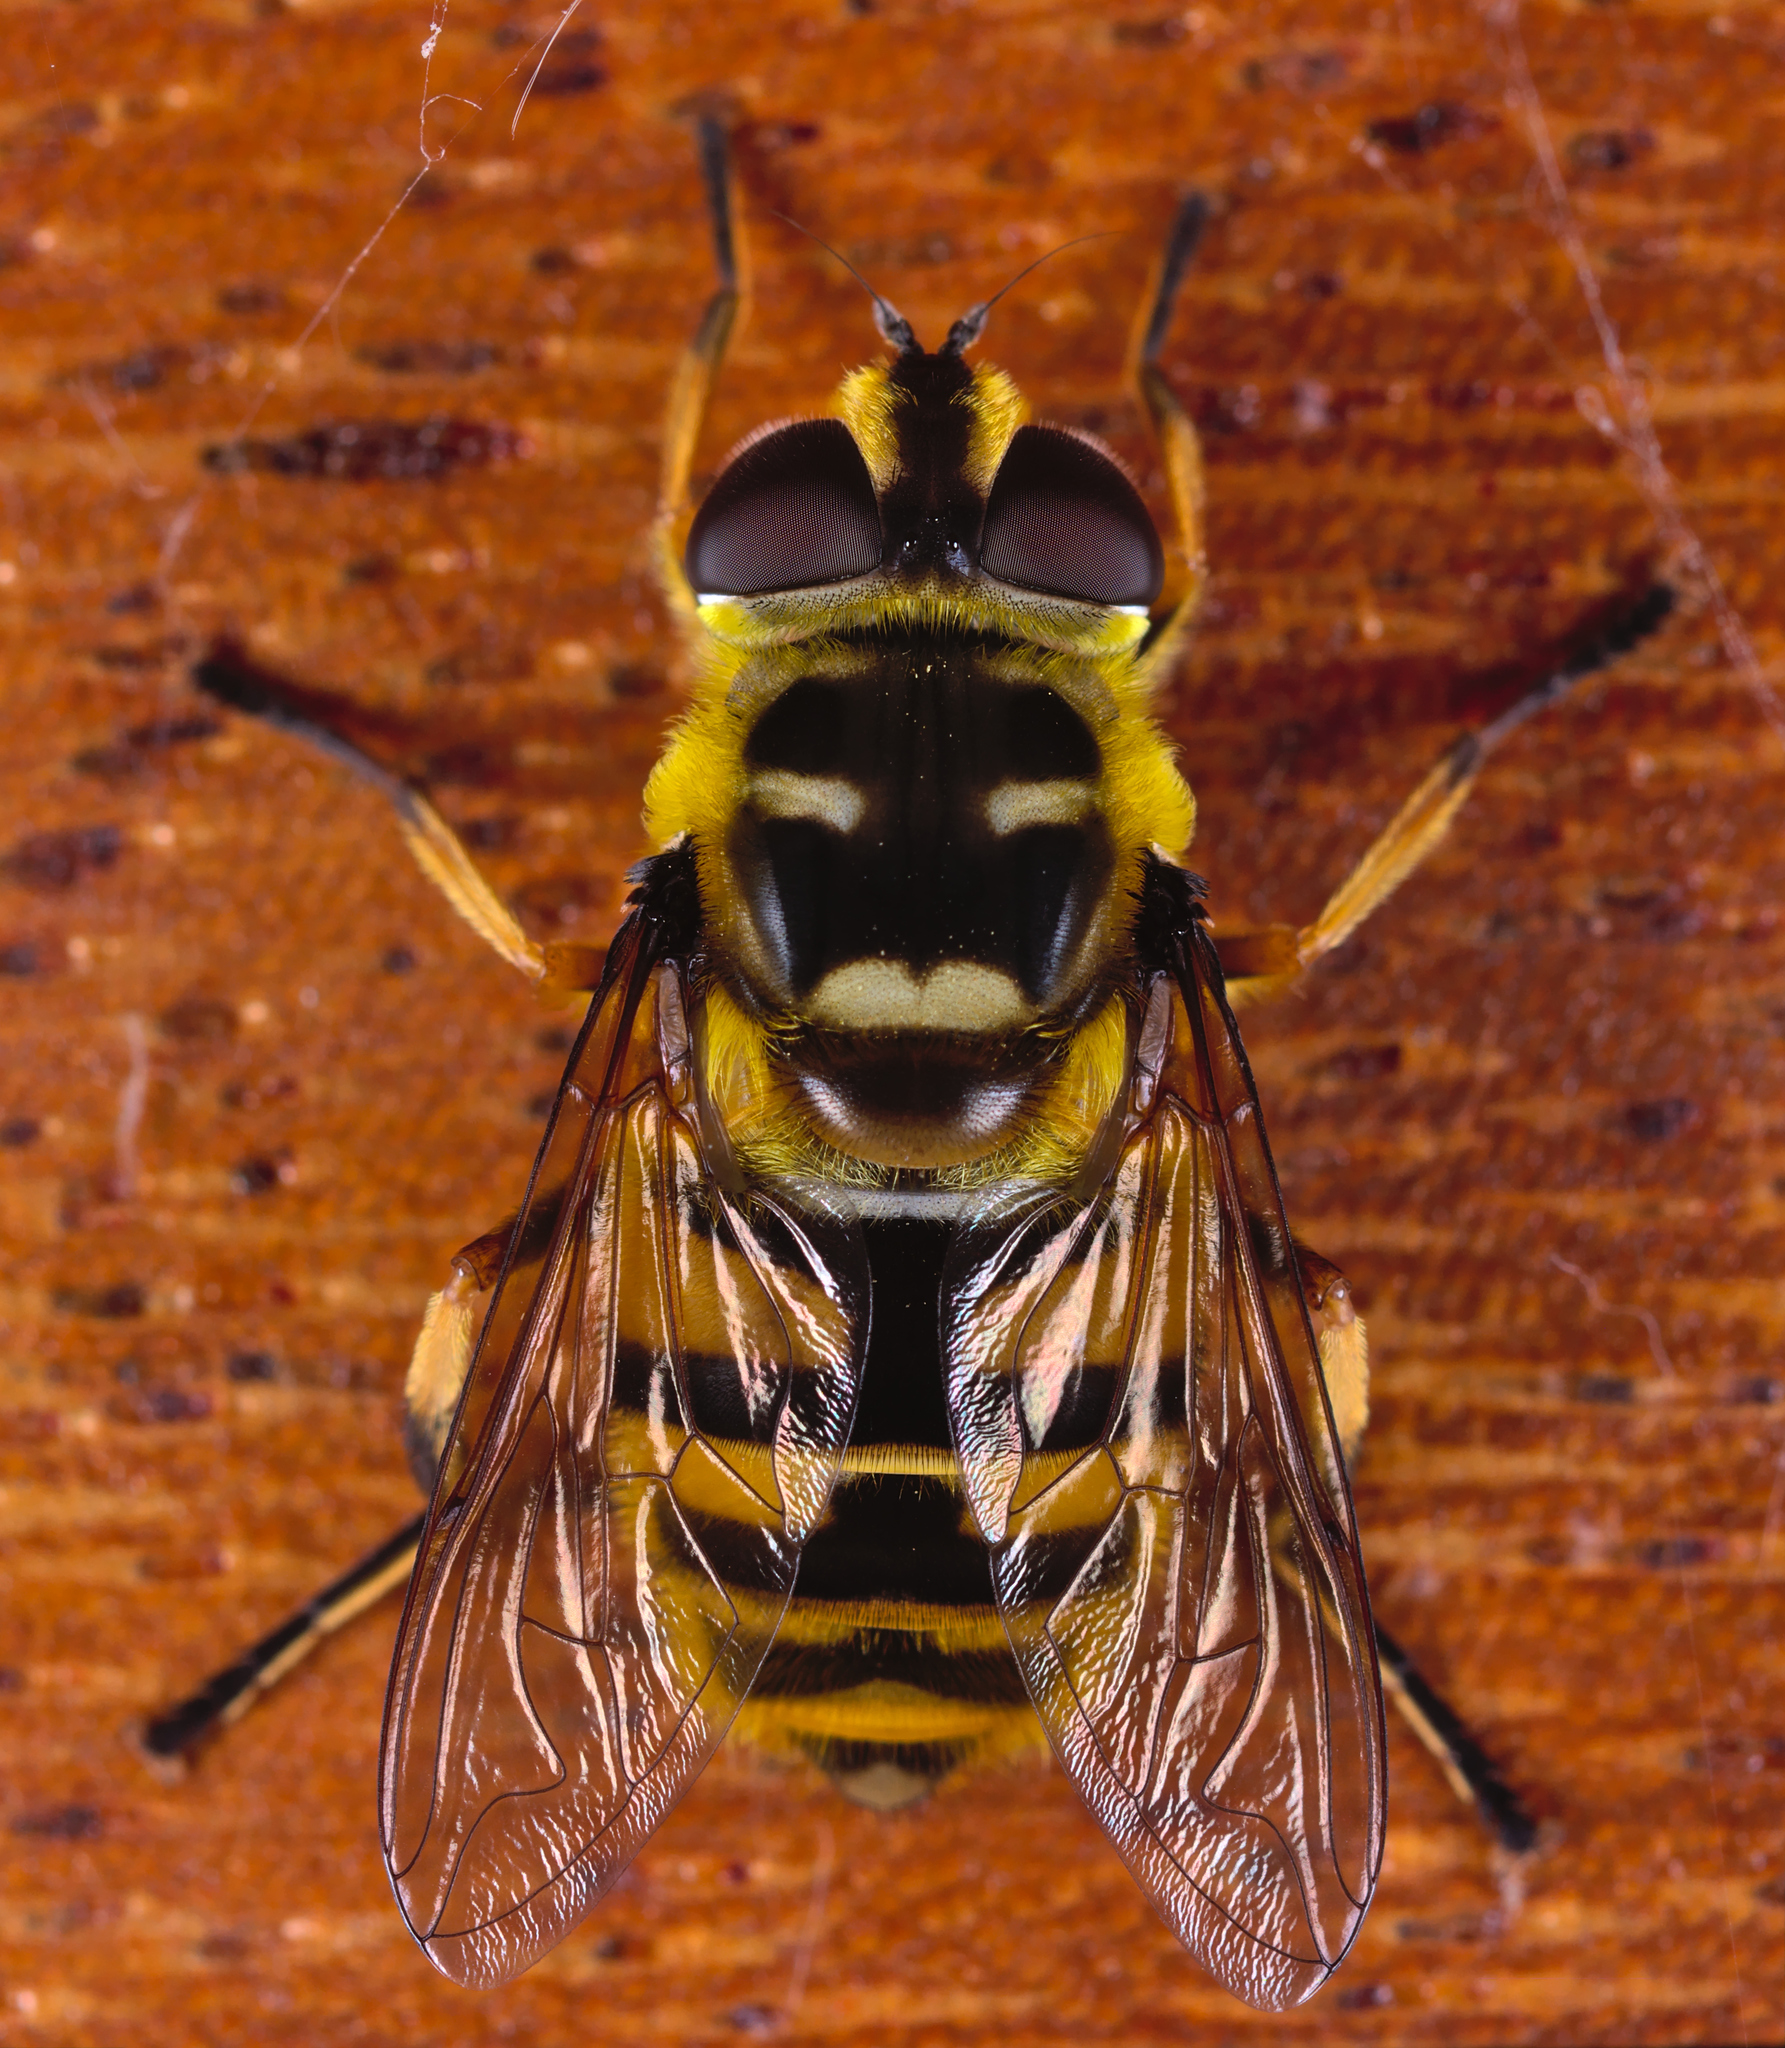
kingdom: Animalia
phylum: Arthropoda
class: Insecta
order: Diptera
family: Syrphidae
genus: Myathropa
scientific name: Myathropa florea
